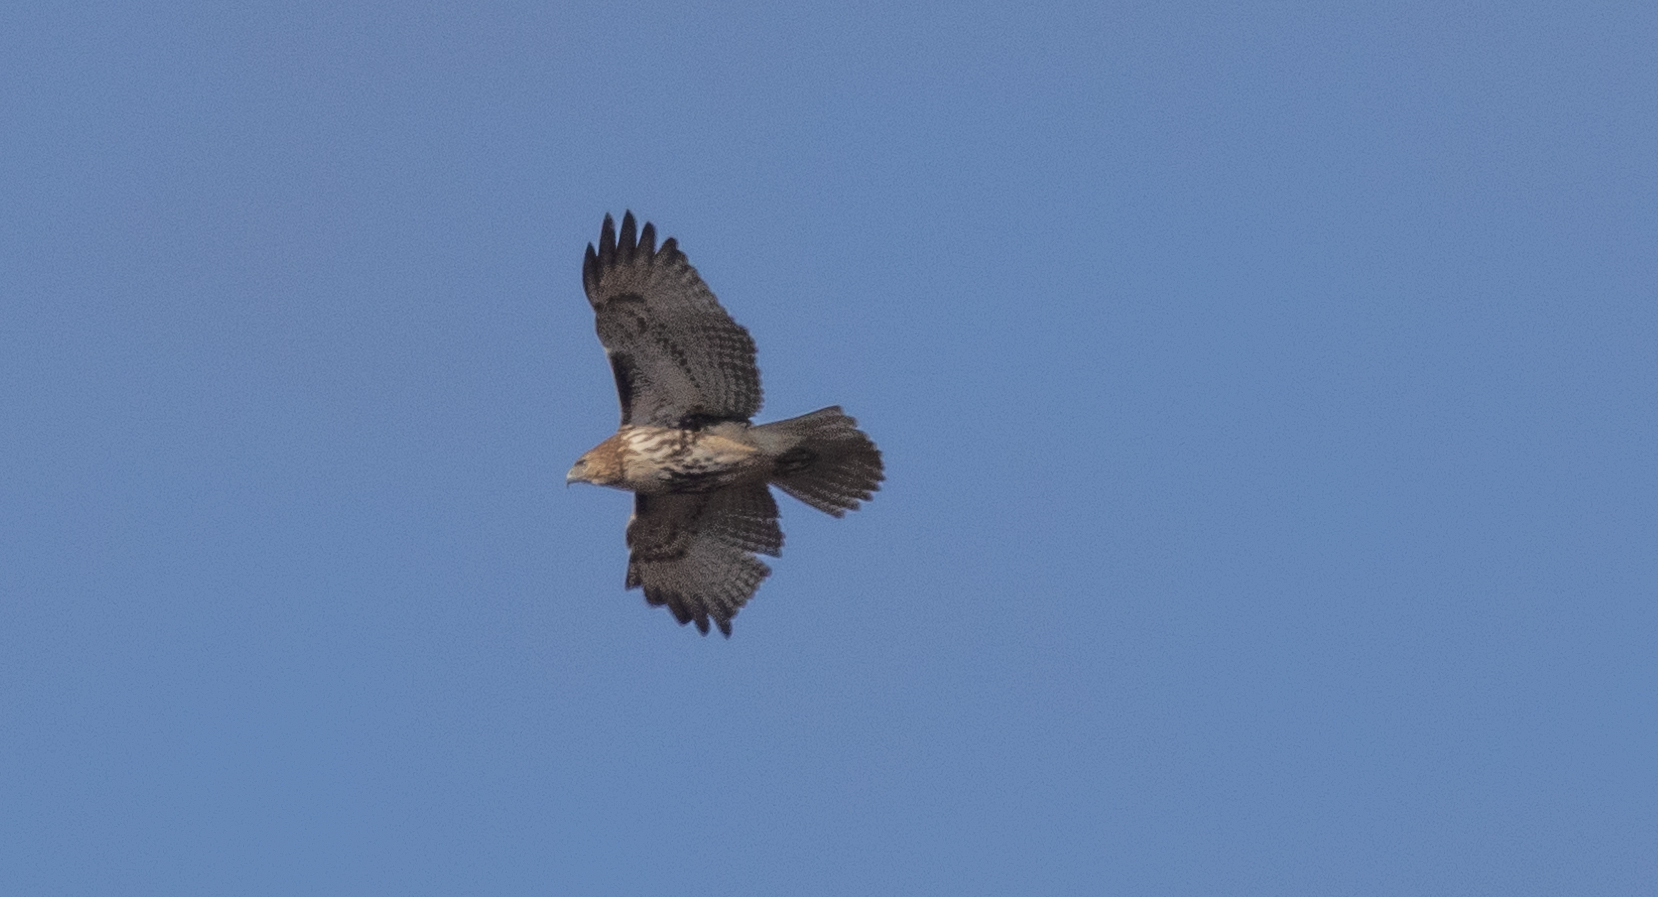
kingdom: Animalia
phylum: Chordata
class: Aves
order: Accipitriformes
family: Accipitridae
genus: Buteo
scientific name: Buteo jamaicensis
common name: Red-tailed hawk
